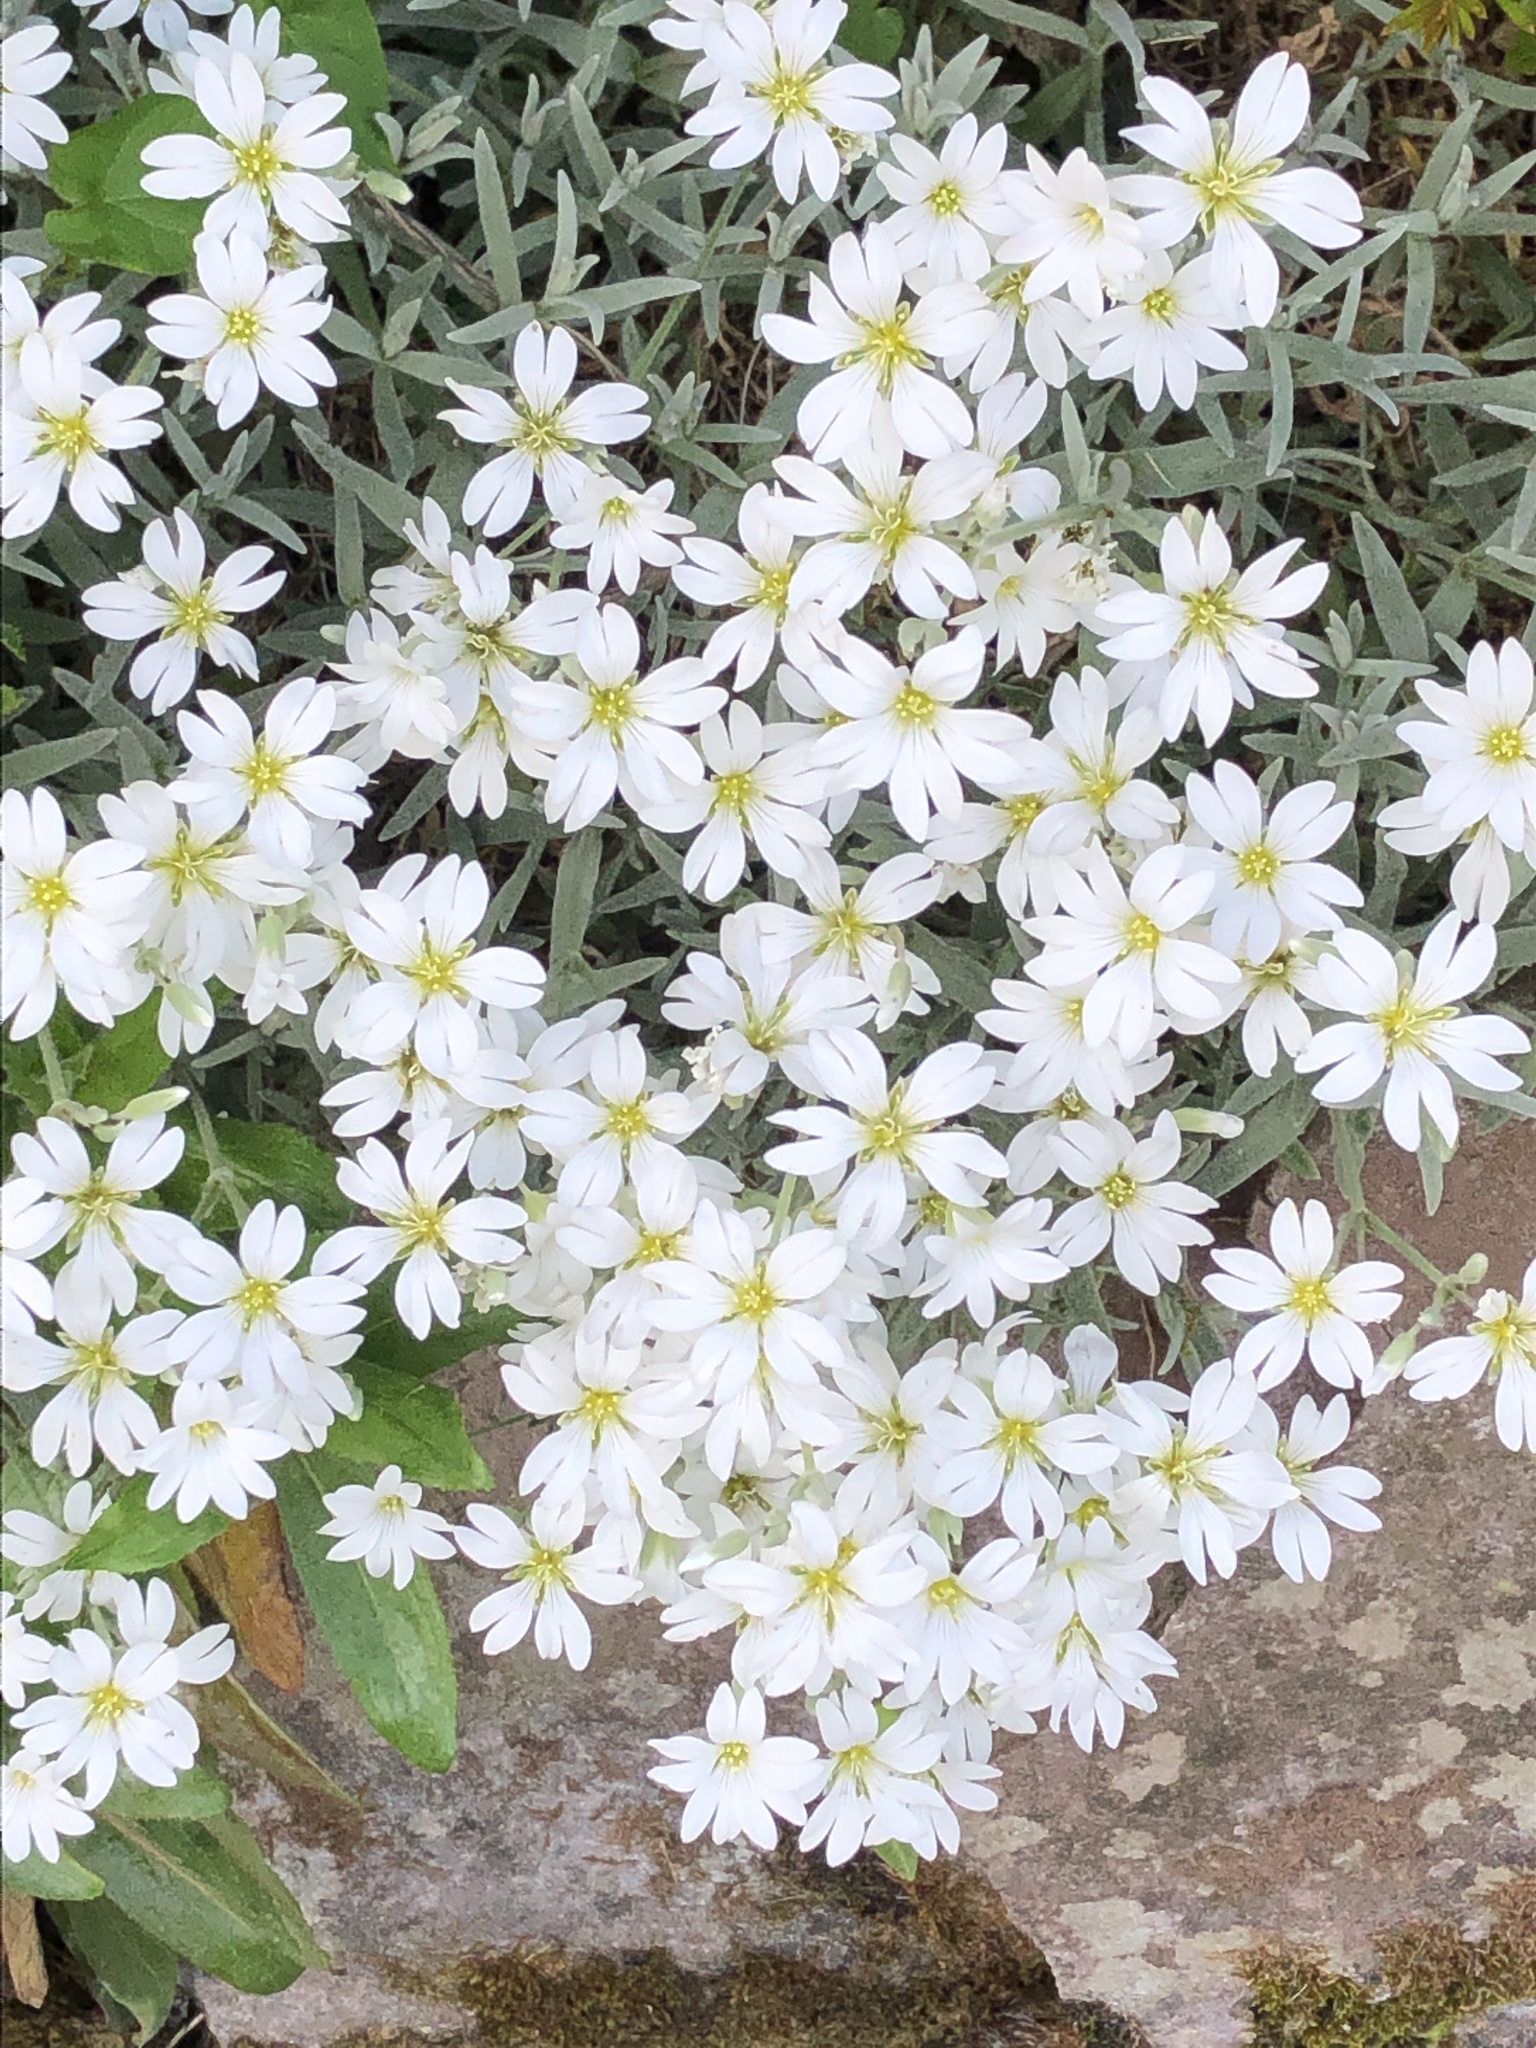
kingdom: Plantae
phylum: Tracheophyta
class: Magnoliopsida
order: Caryophyllales
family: Caryophyllaceae
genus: Rabelera
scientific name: Rabelera holostea
